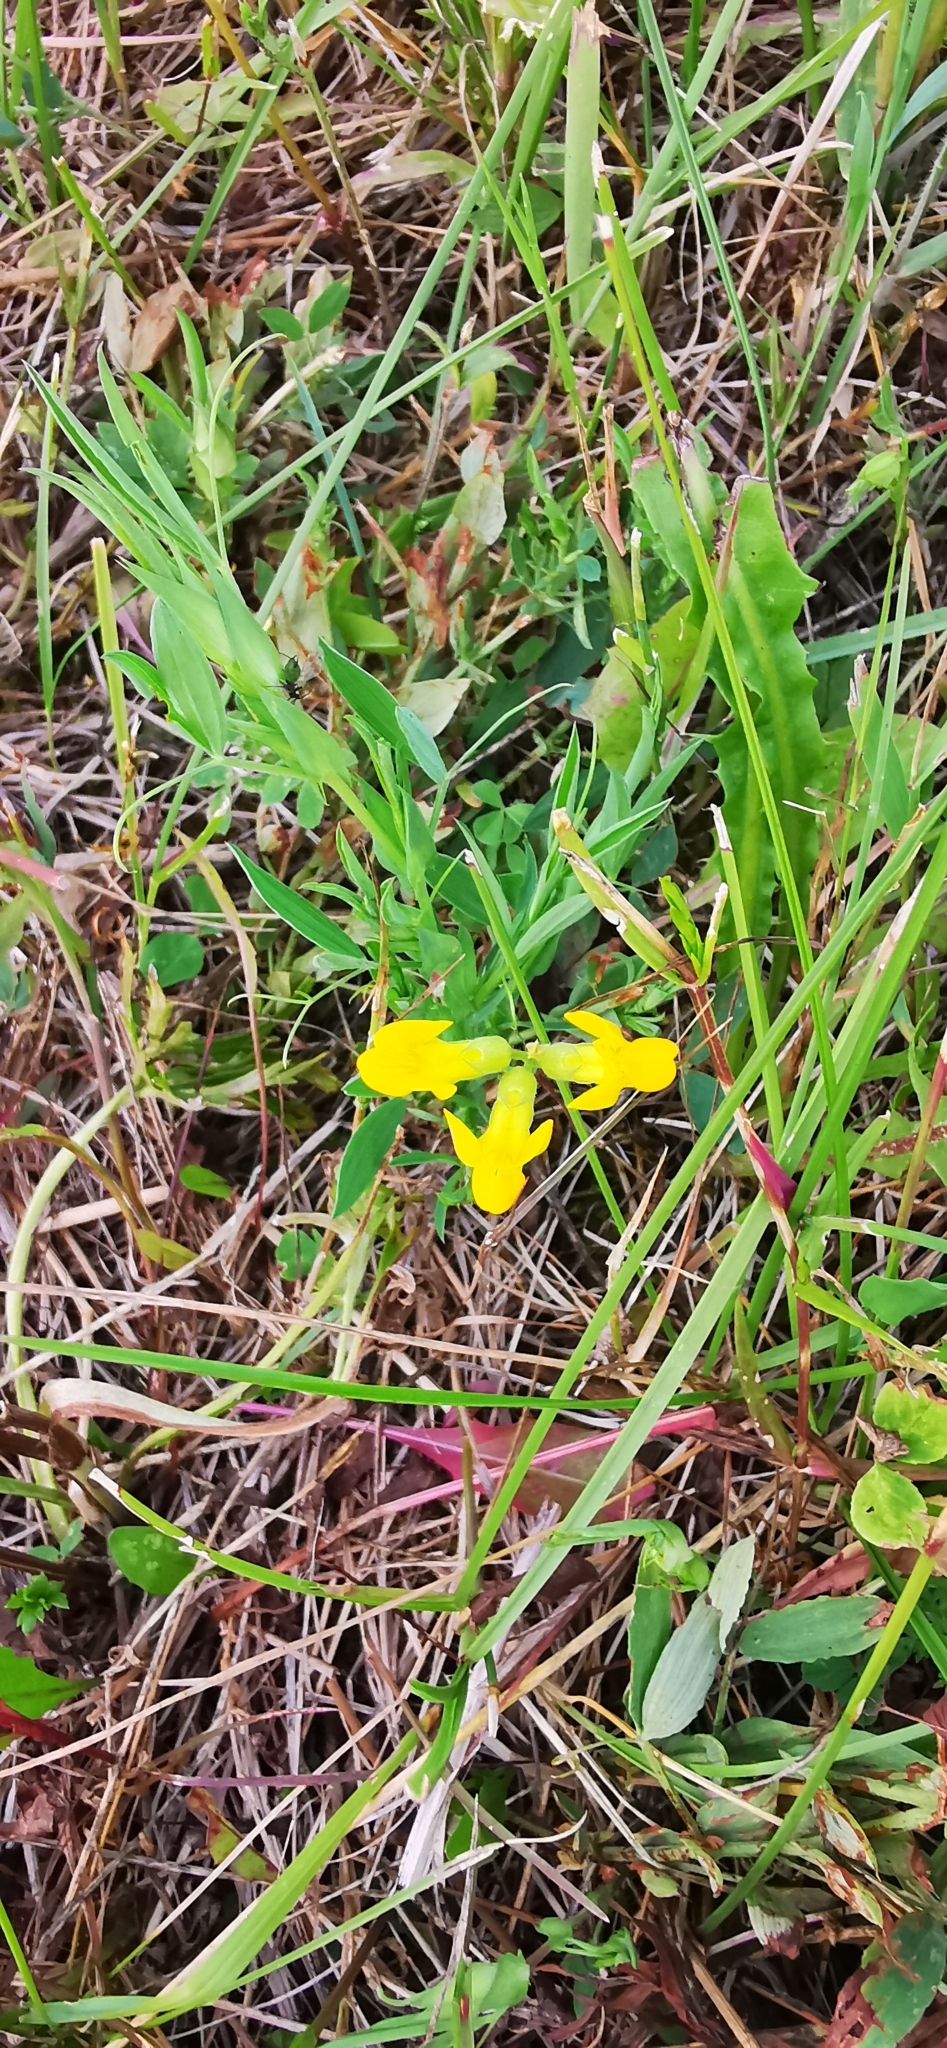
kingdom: Plantae
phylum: Tracheophyta
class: Magnoliopsida
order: Fabales
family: Fabaceae
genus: Lathyrus
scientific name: Lathyrus pratensis
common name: Meadow vetchling
